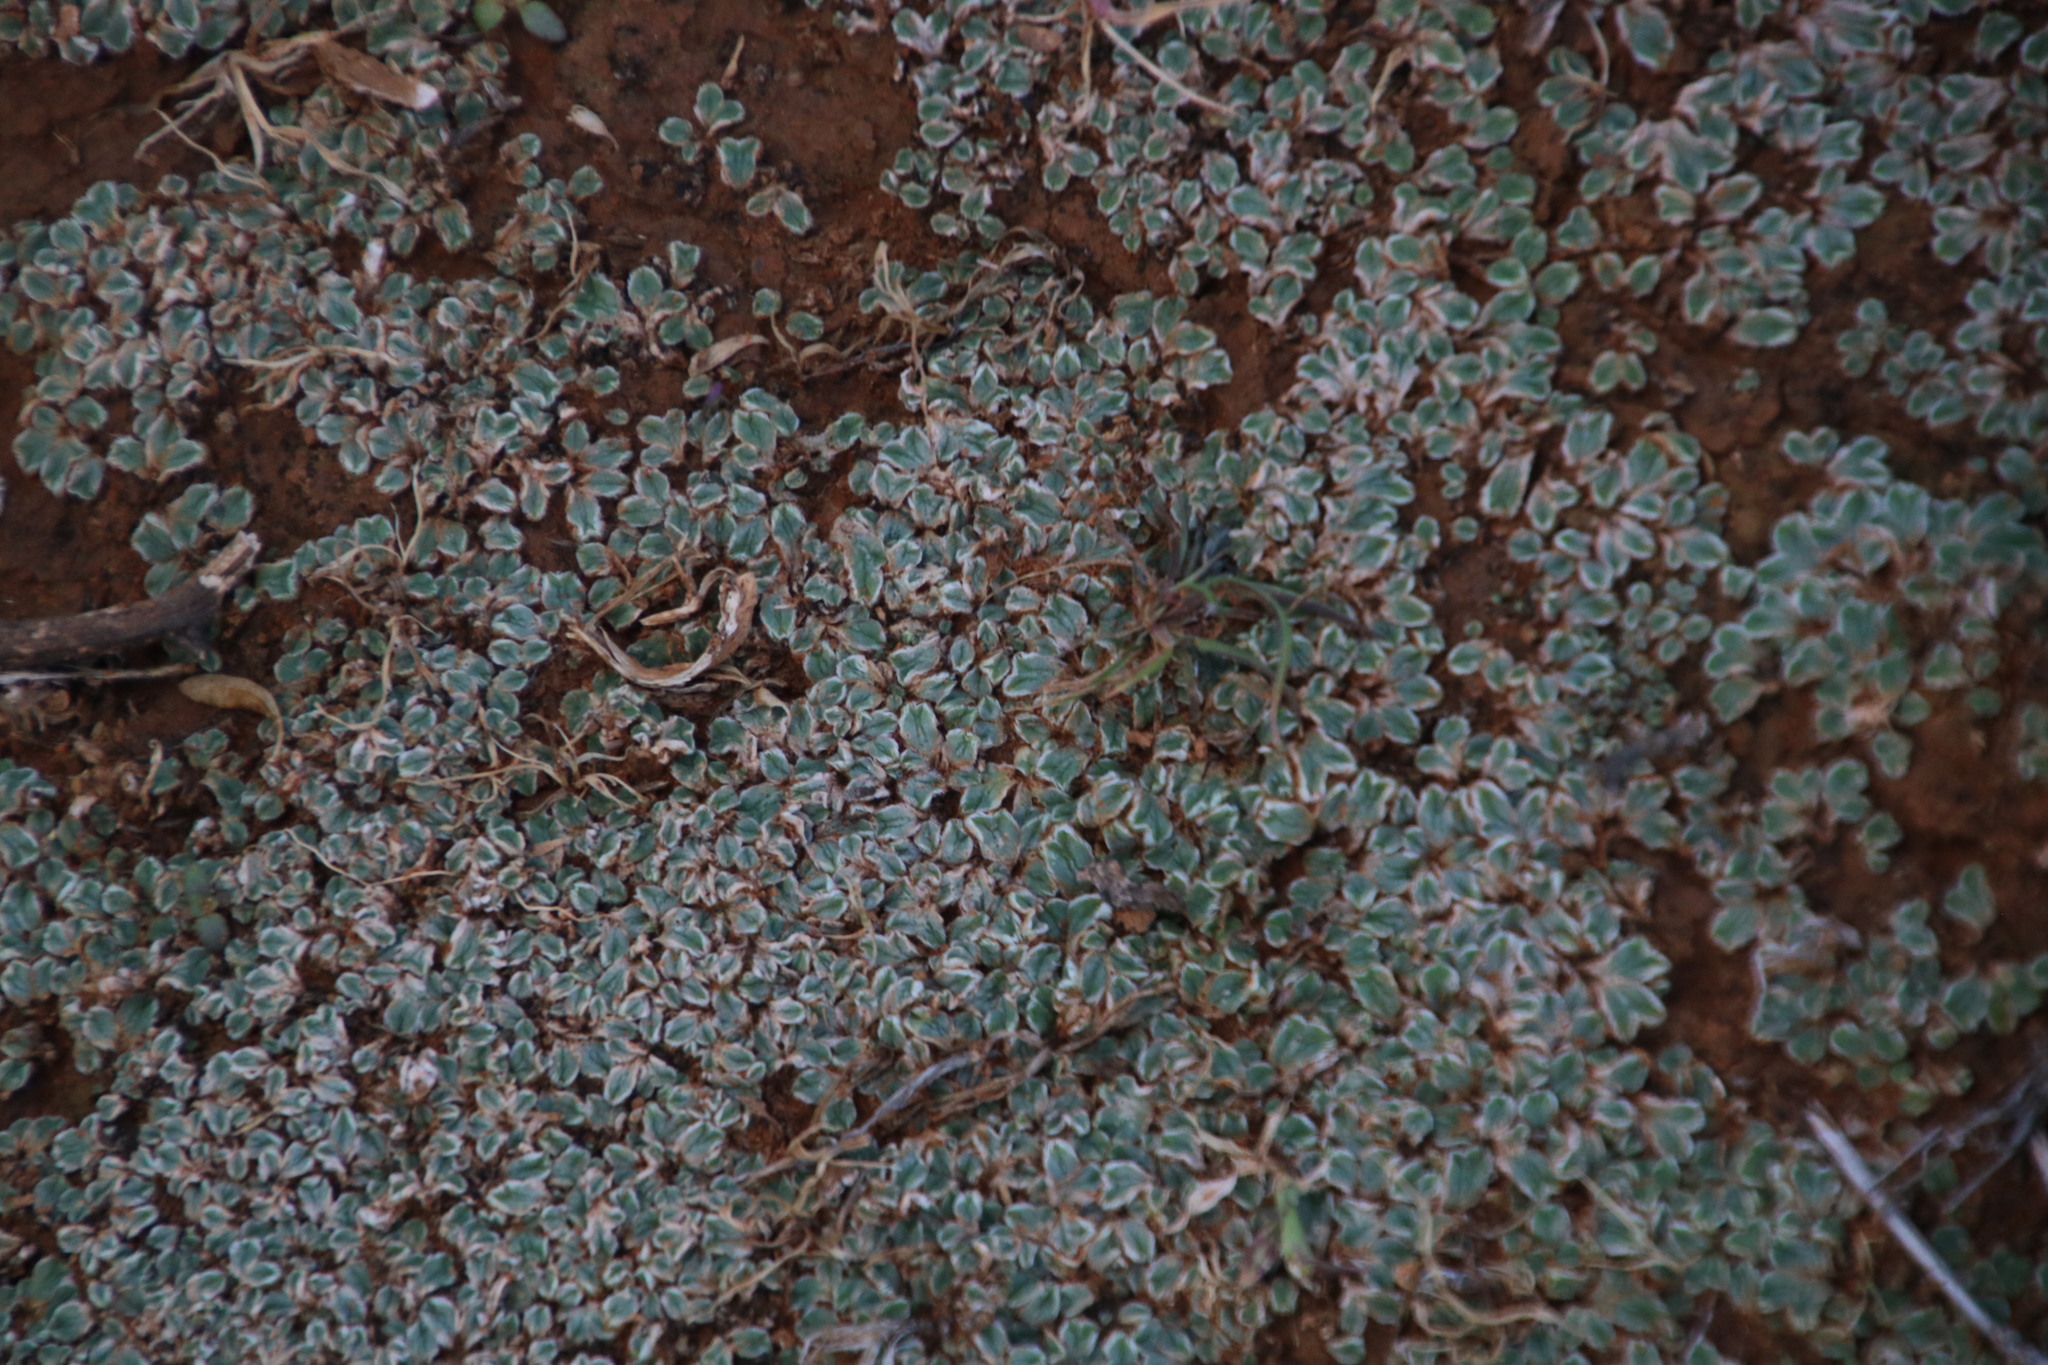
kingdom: Plantae
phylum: Marchantiophyta
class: Marchantiopsida
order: Marchantiales
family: Ricciaceae
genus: Riccia
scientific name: Riccia albovestita
